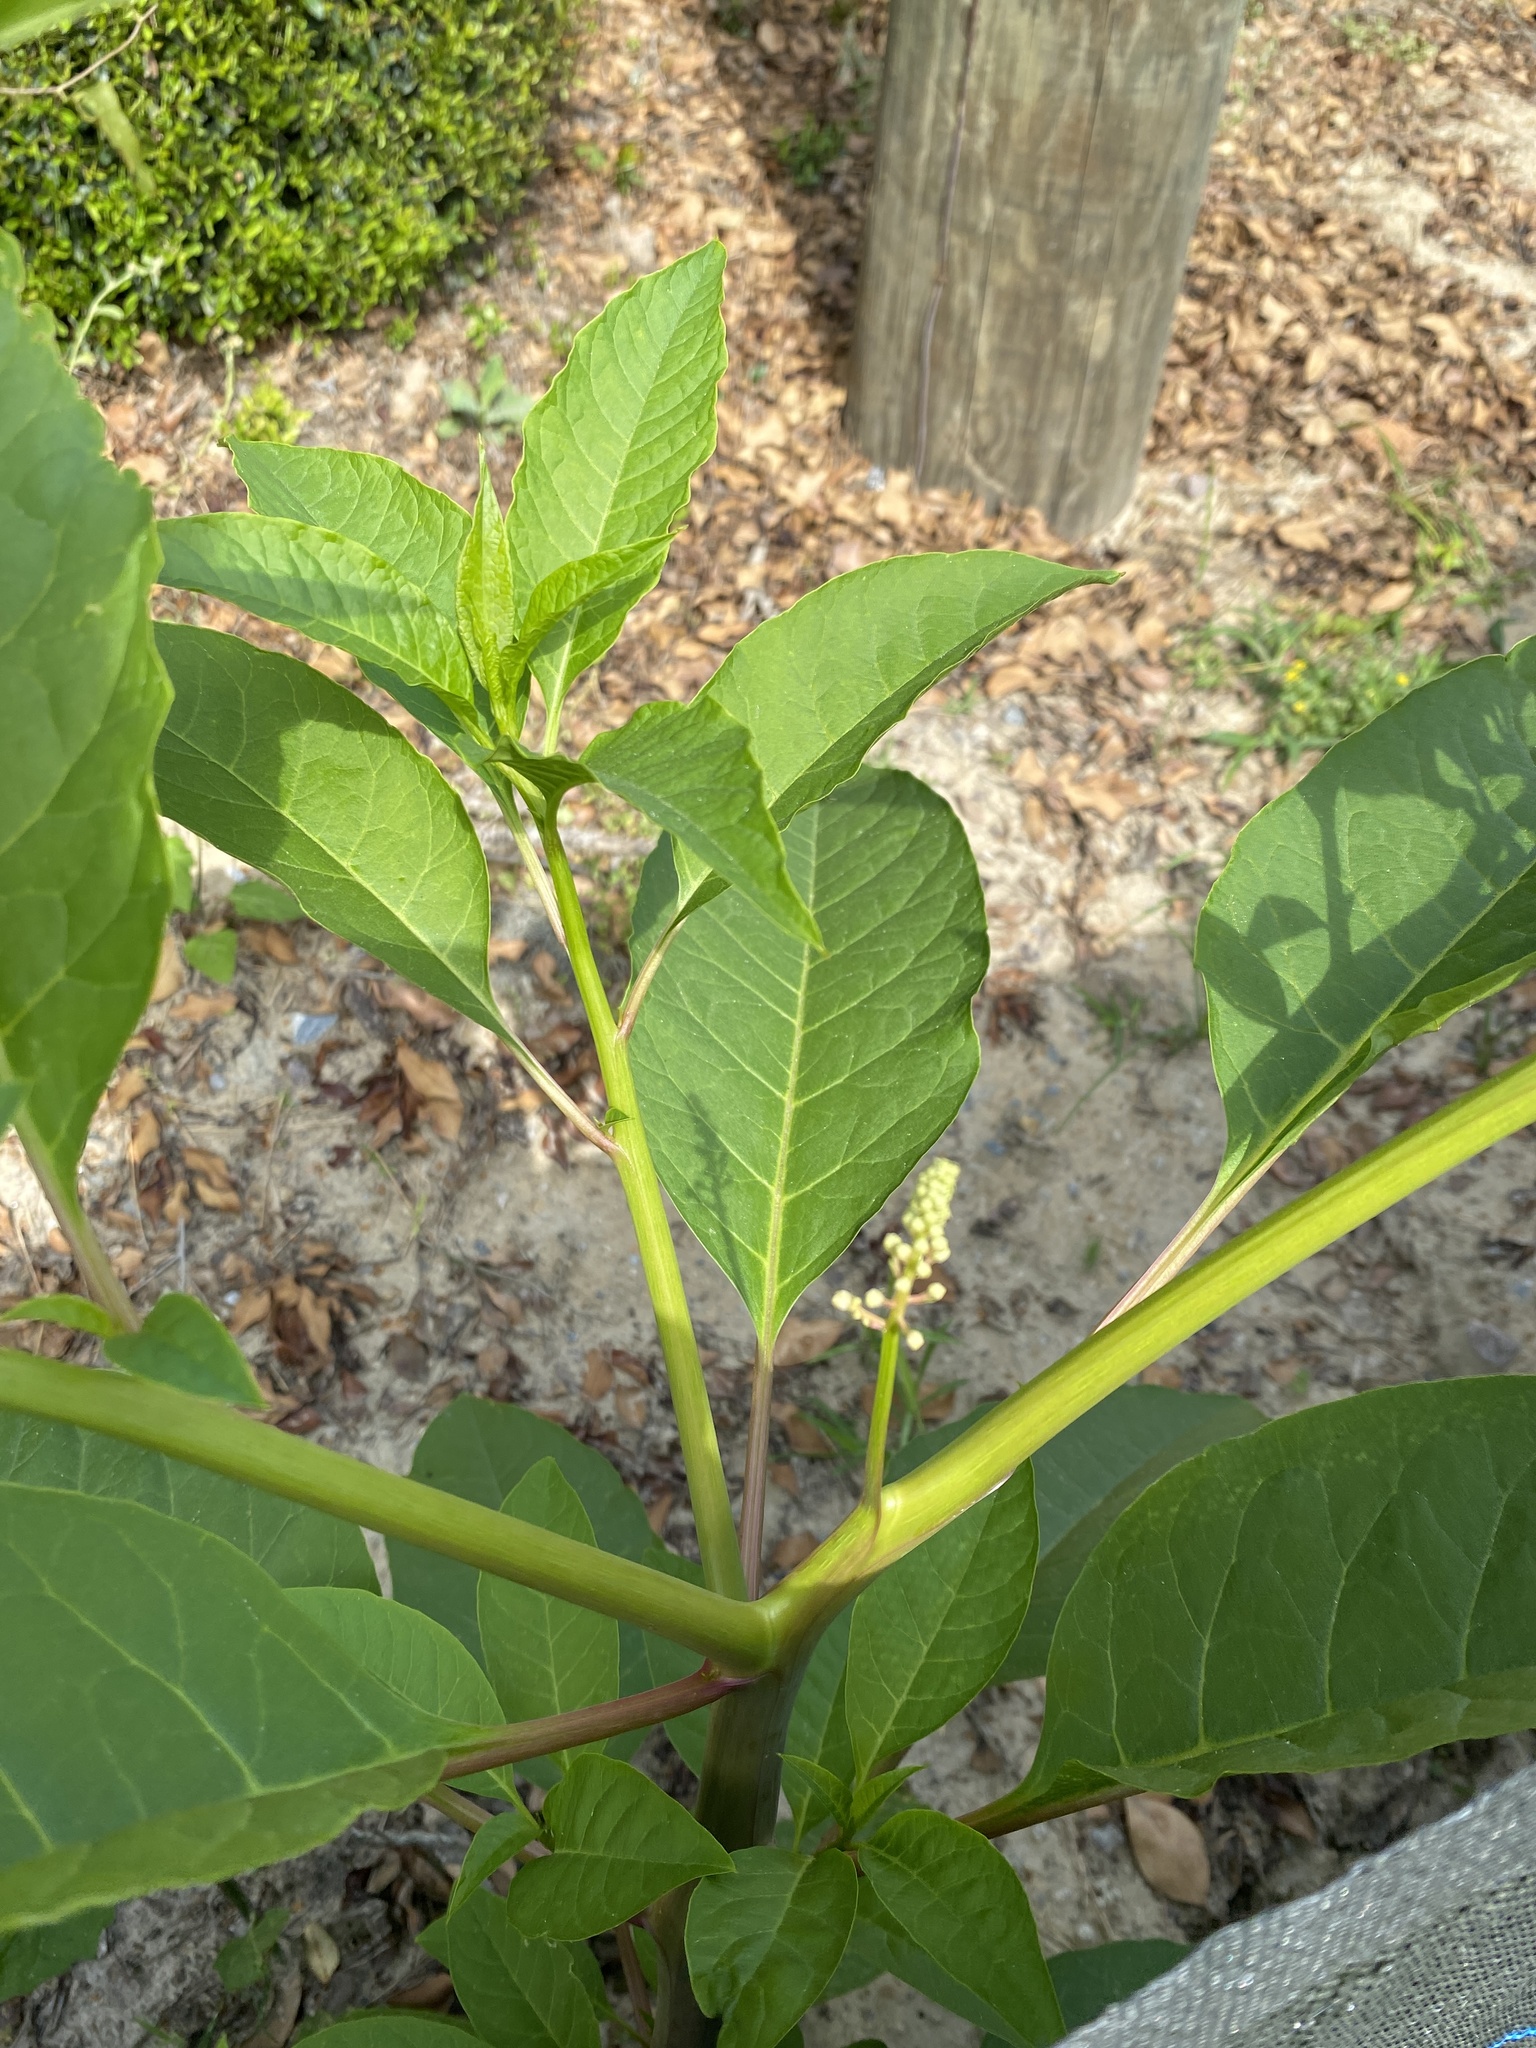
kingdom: Plantae
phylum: Tracheophyta
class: Magnoliopsida
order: Caryophyllales
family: Phytolaccaceae
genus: Phytolacca
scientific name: Phytolacca americana
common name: American pokeweed
